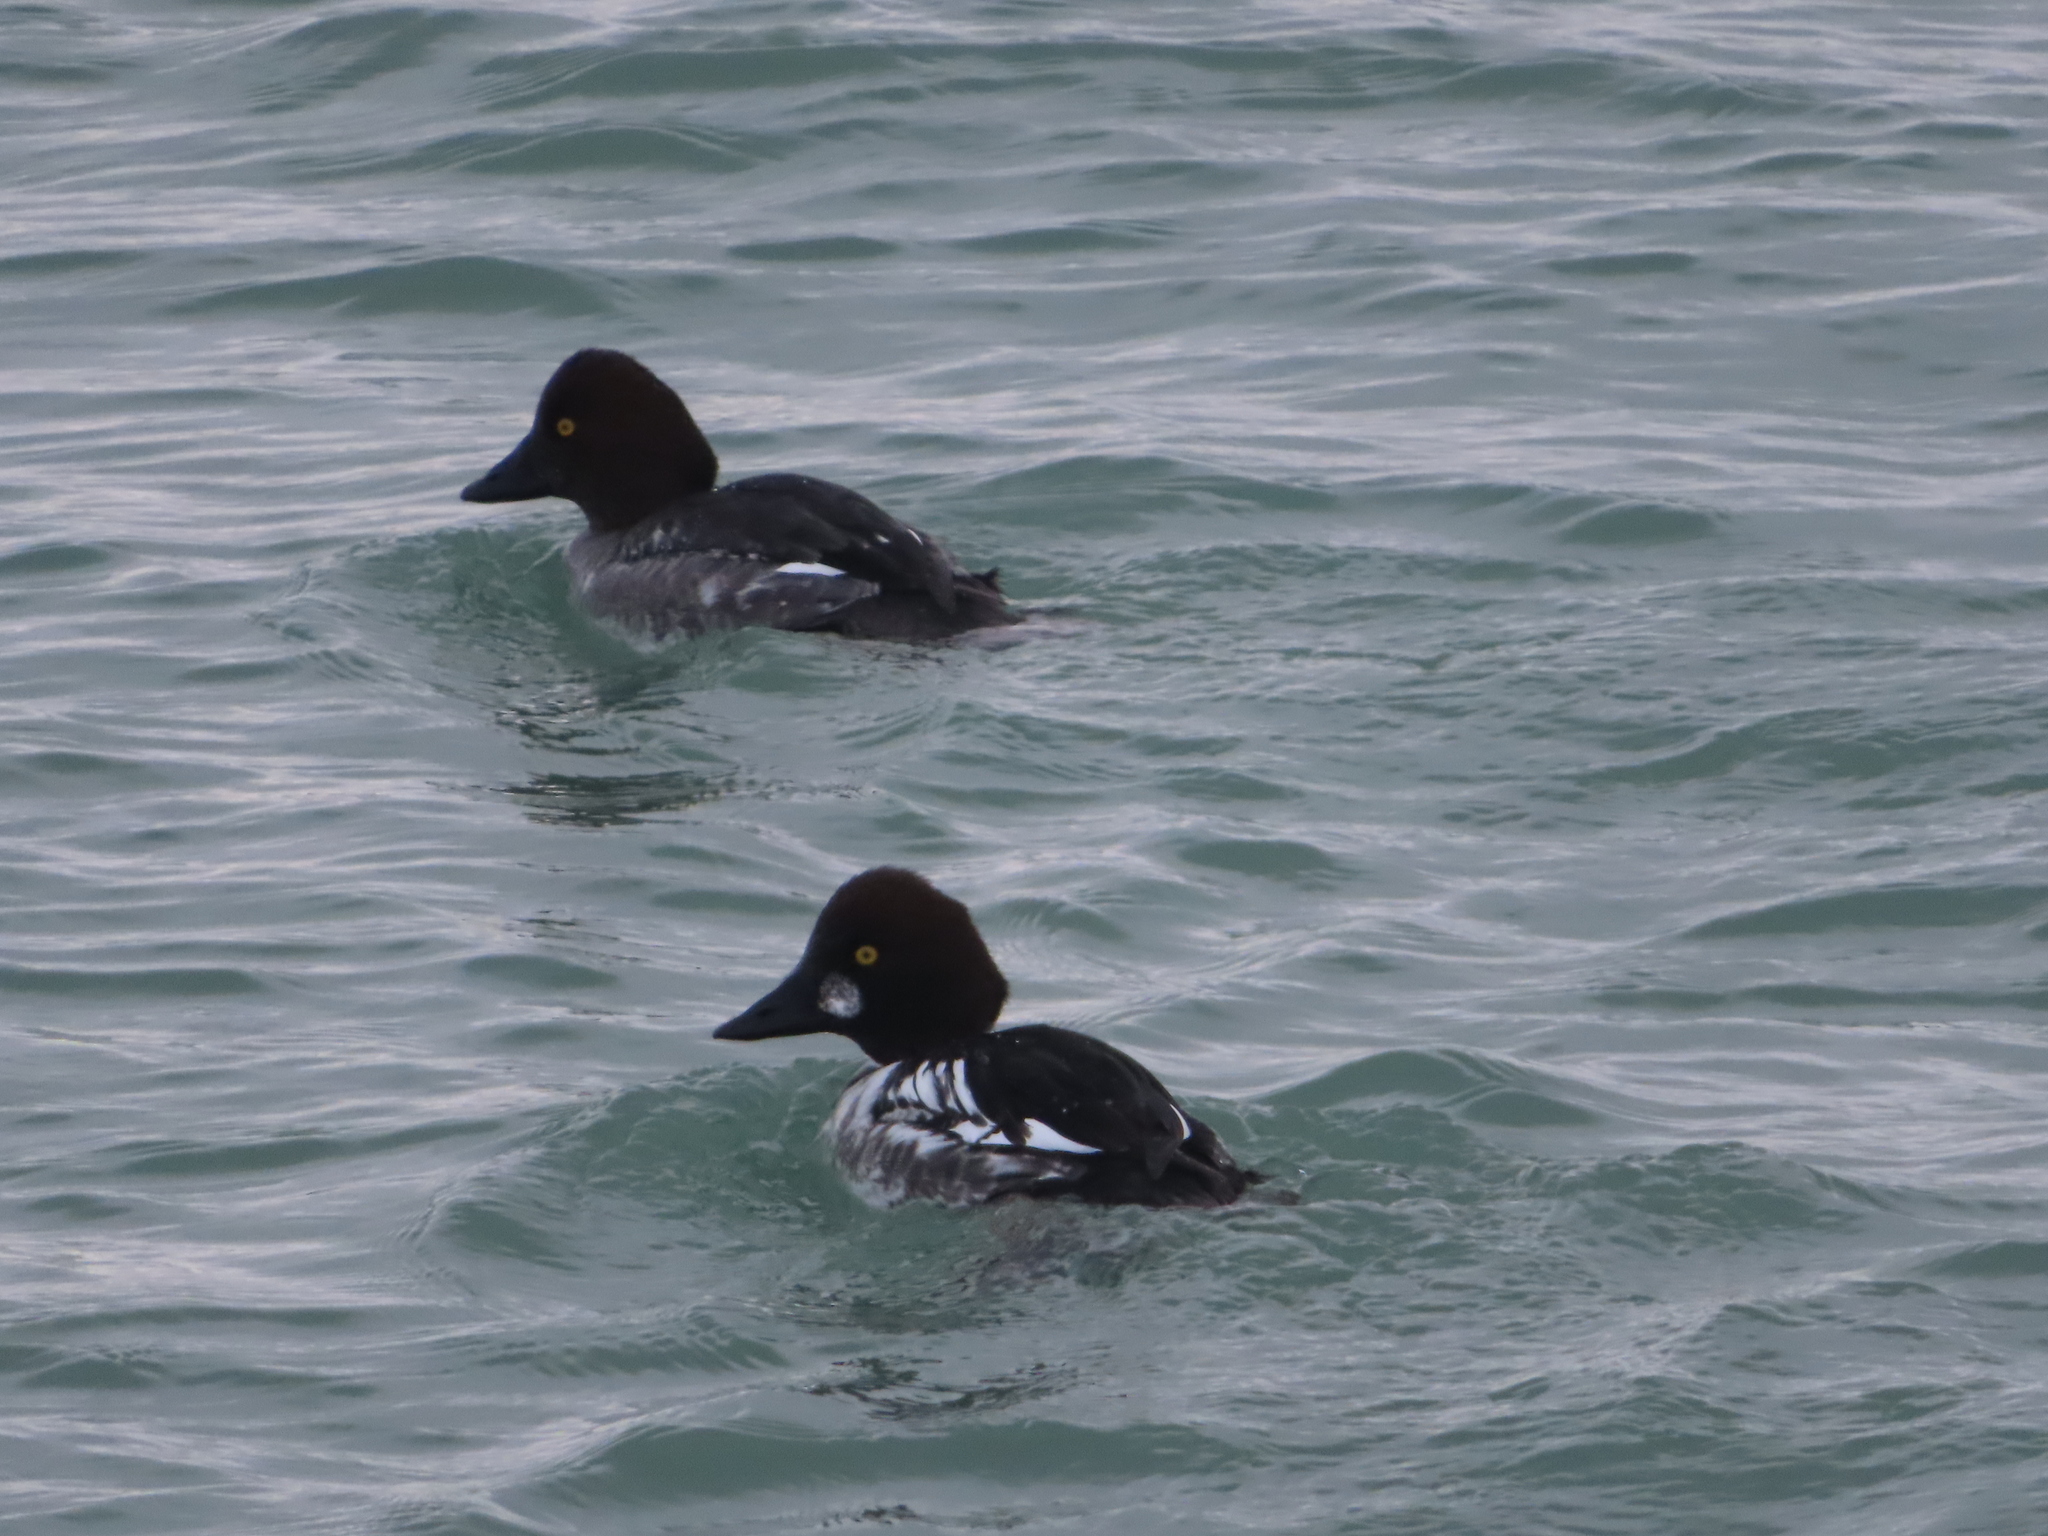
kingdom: Animalia
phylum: Chordata
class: Aves
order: Anseriformes
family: Anatidae
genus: Bucephala
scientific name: Bucephala clangula
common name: Common goldeneye
